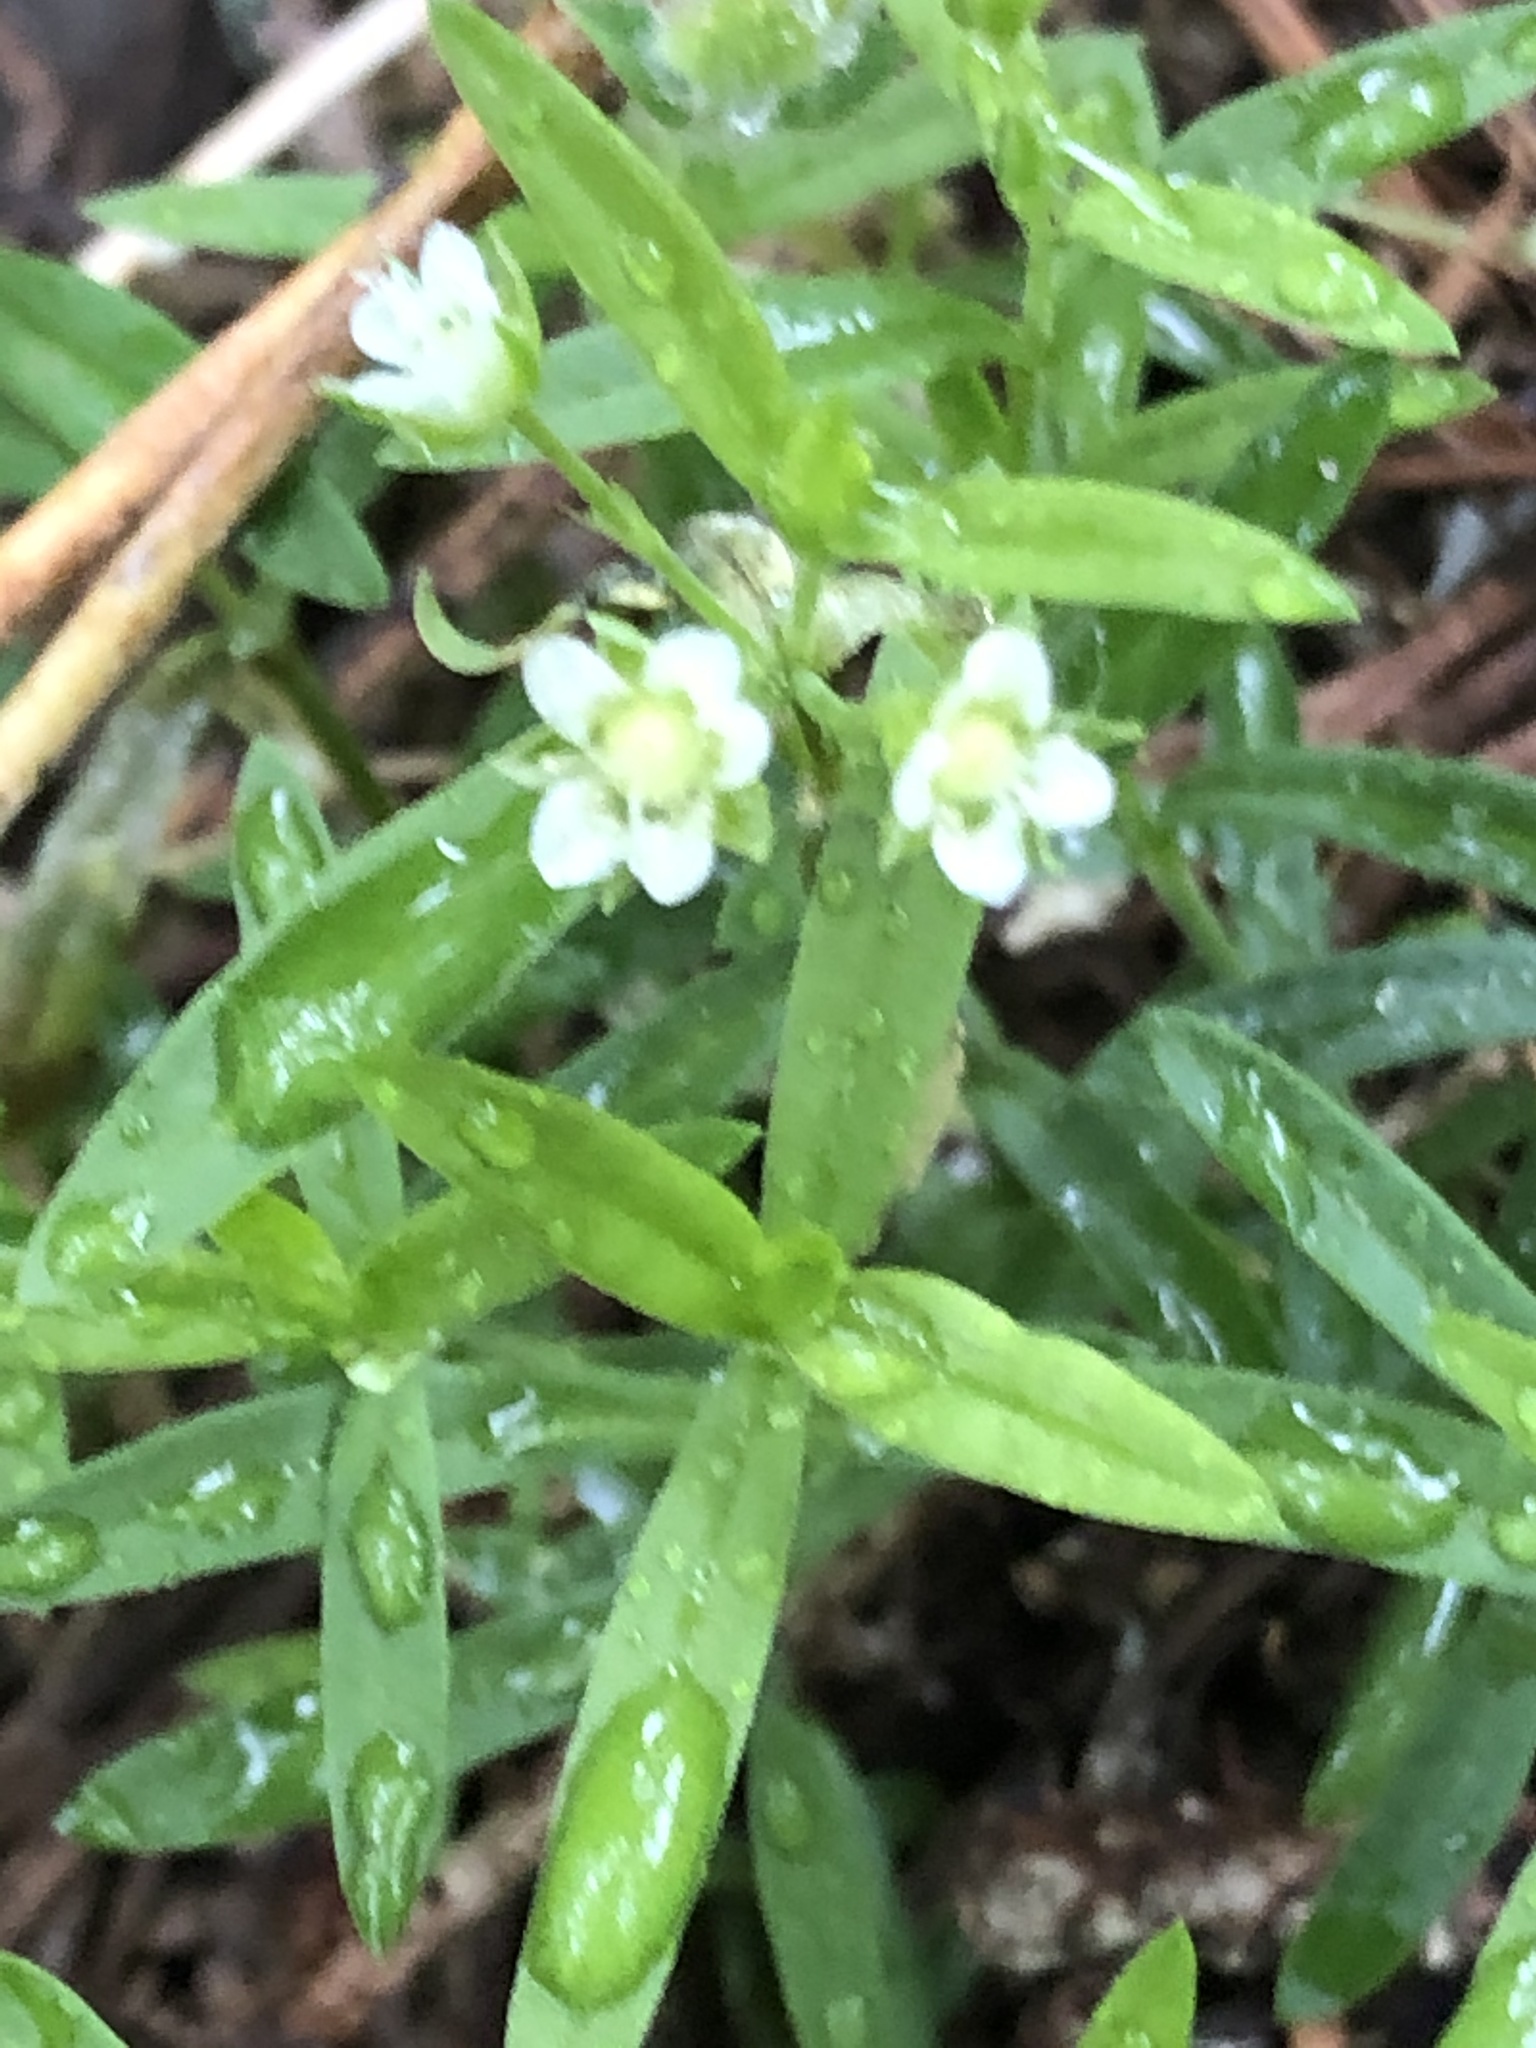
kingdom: Plantae
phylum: Tracheophyta
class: Magnoliopsida
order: Caryophyllales
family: Caryophyllaceae
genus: Moehringia
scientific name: Moehringia macrophylla
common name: Big-leaf sandwort
